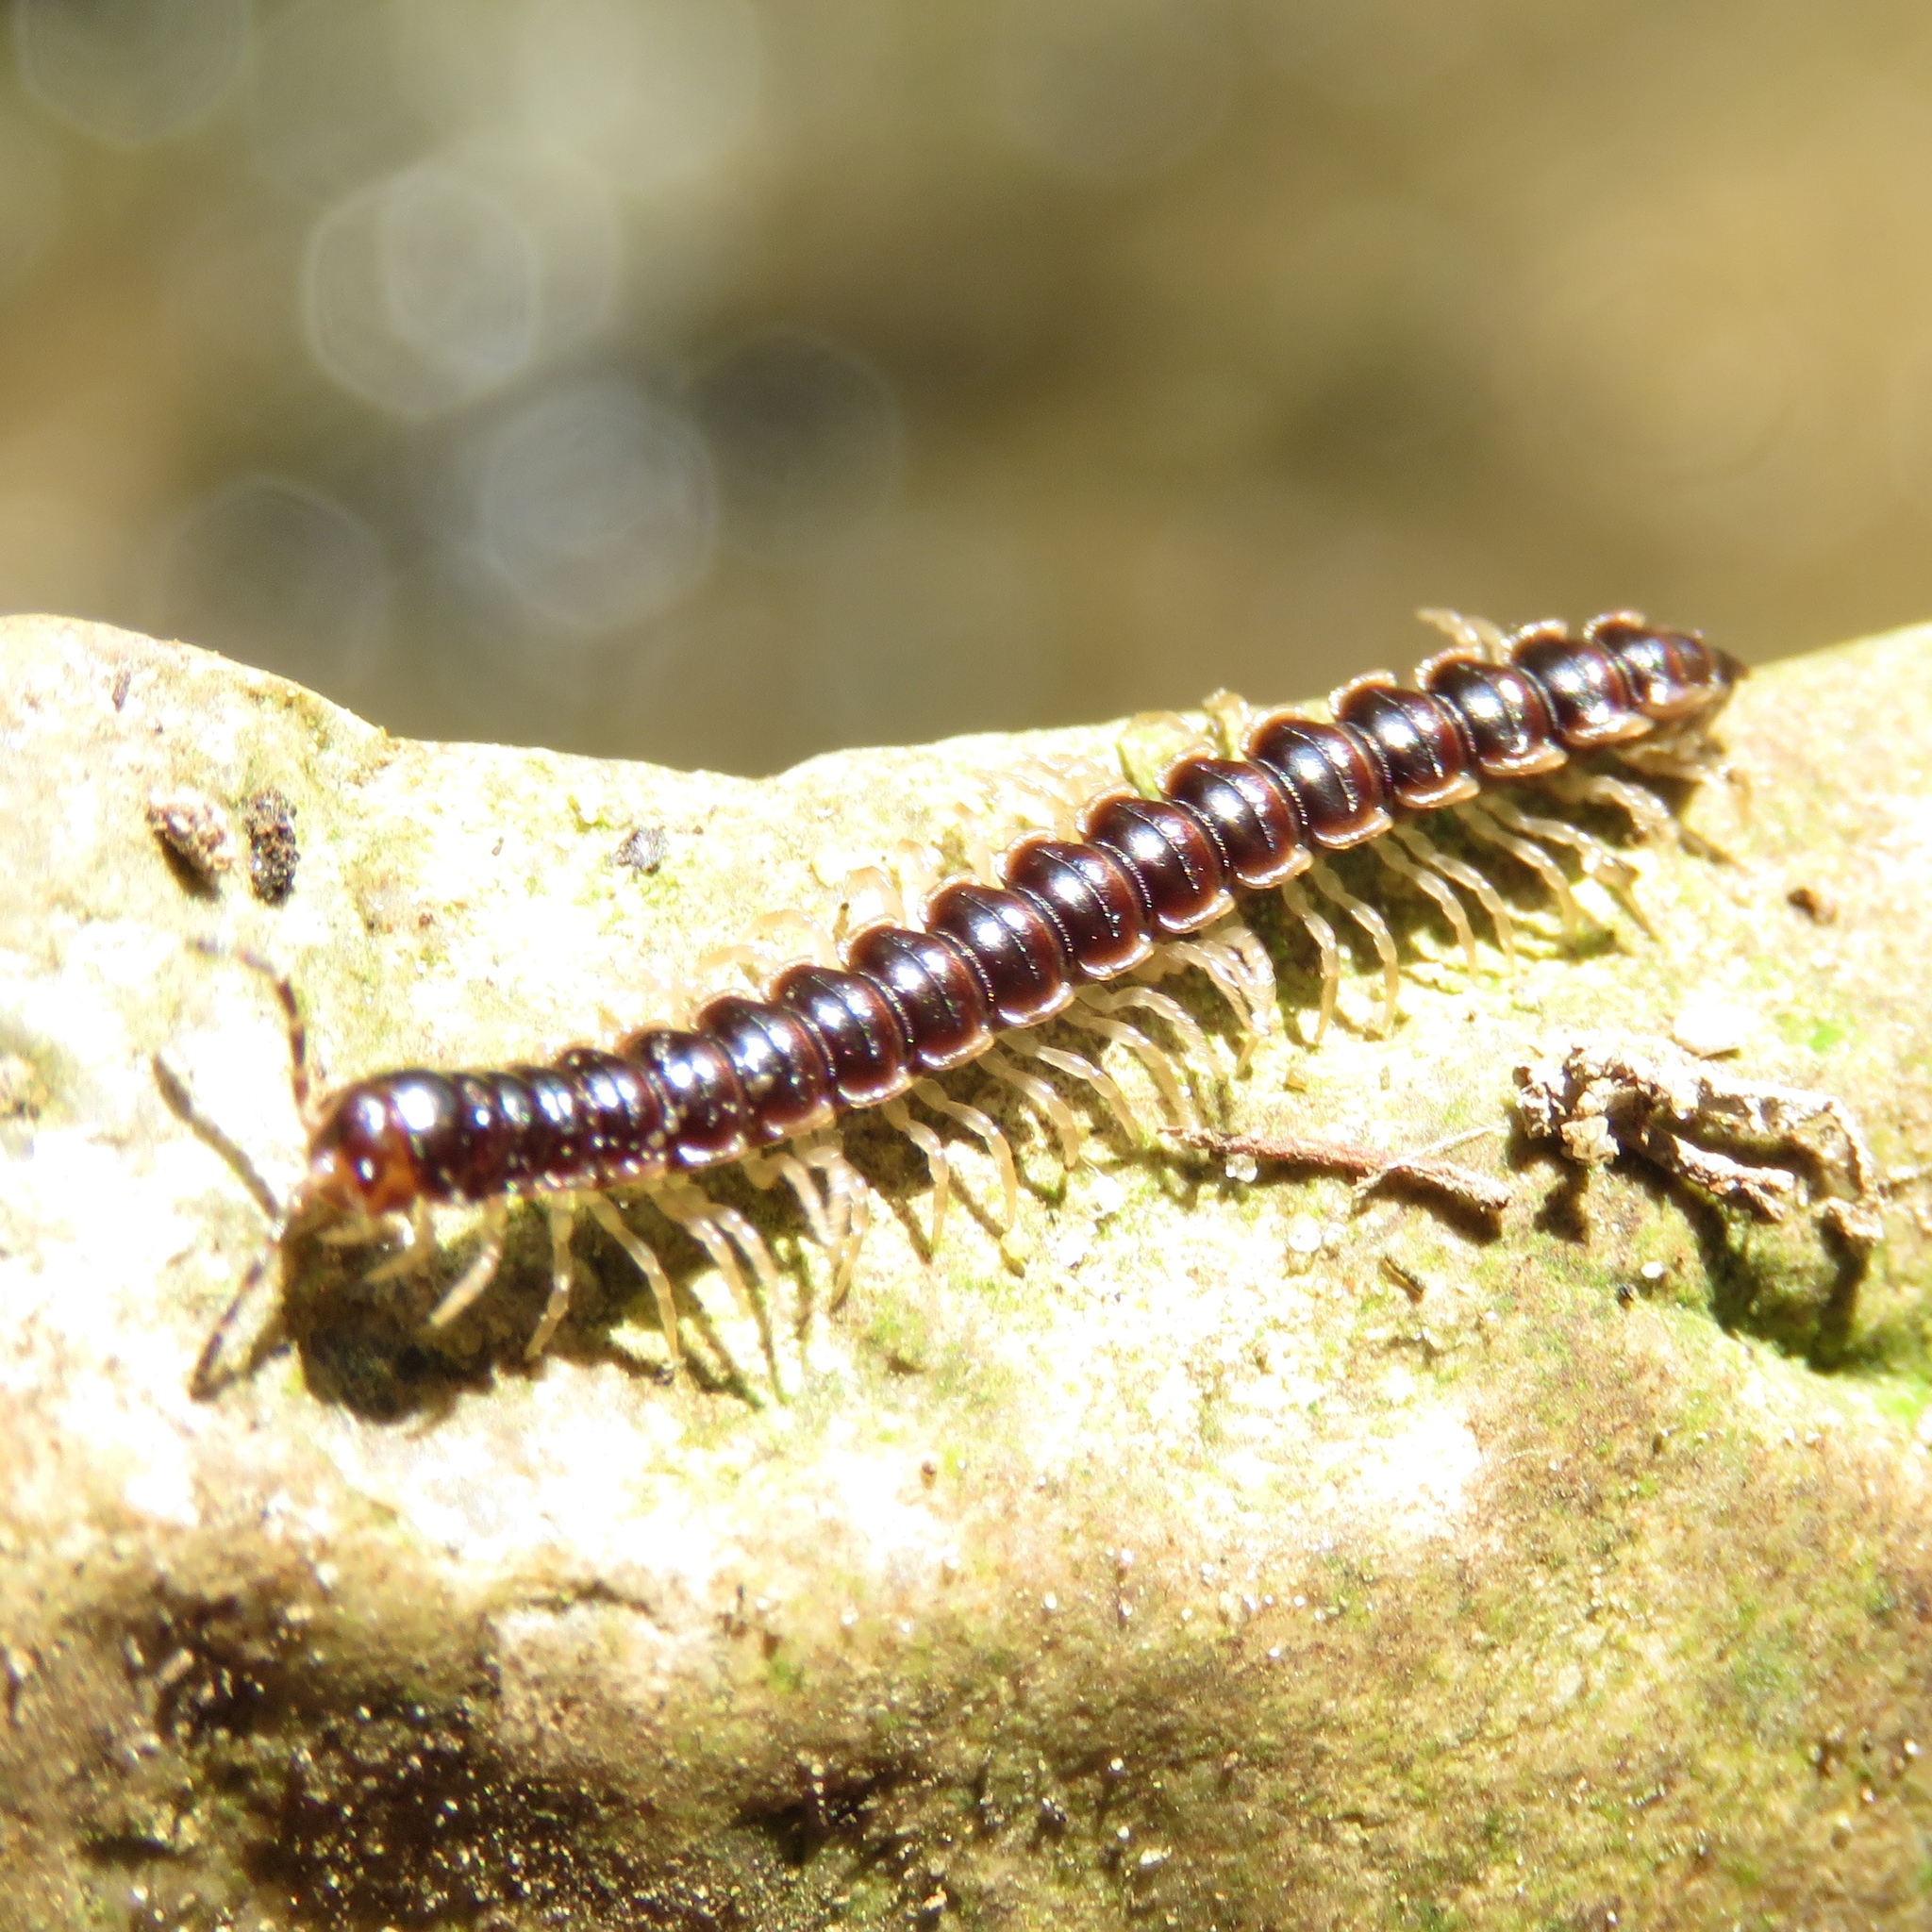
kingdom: Animalia
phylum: Arthropoda
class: Diplopoda
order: Polydesmida
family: Paradoxosomatidae
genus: Oxidus
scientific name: Oxidus gracilis
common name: Greenhouse millipede
